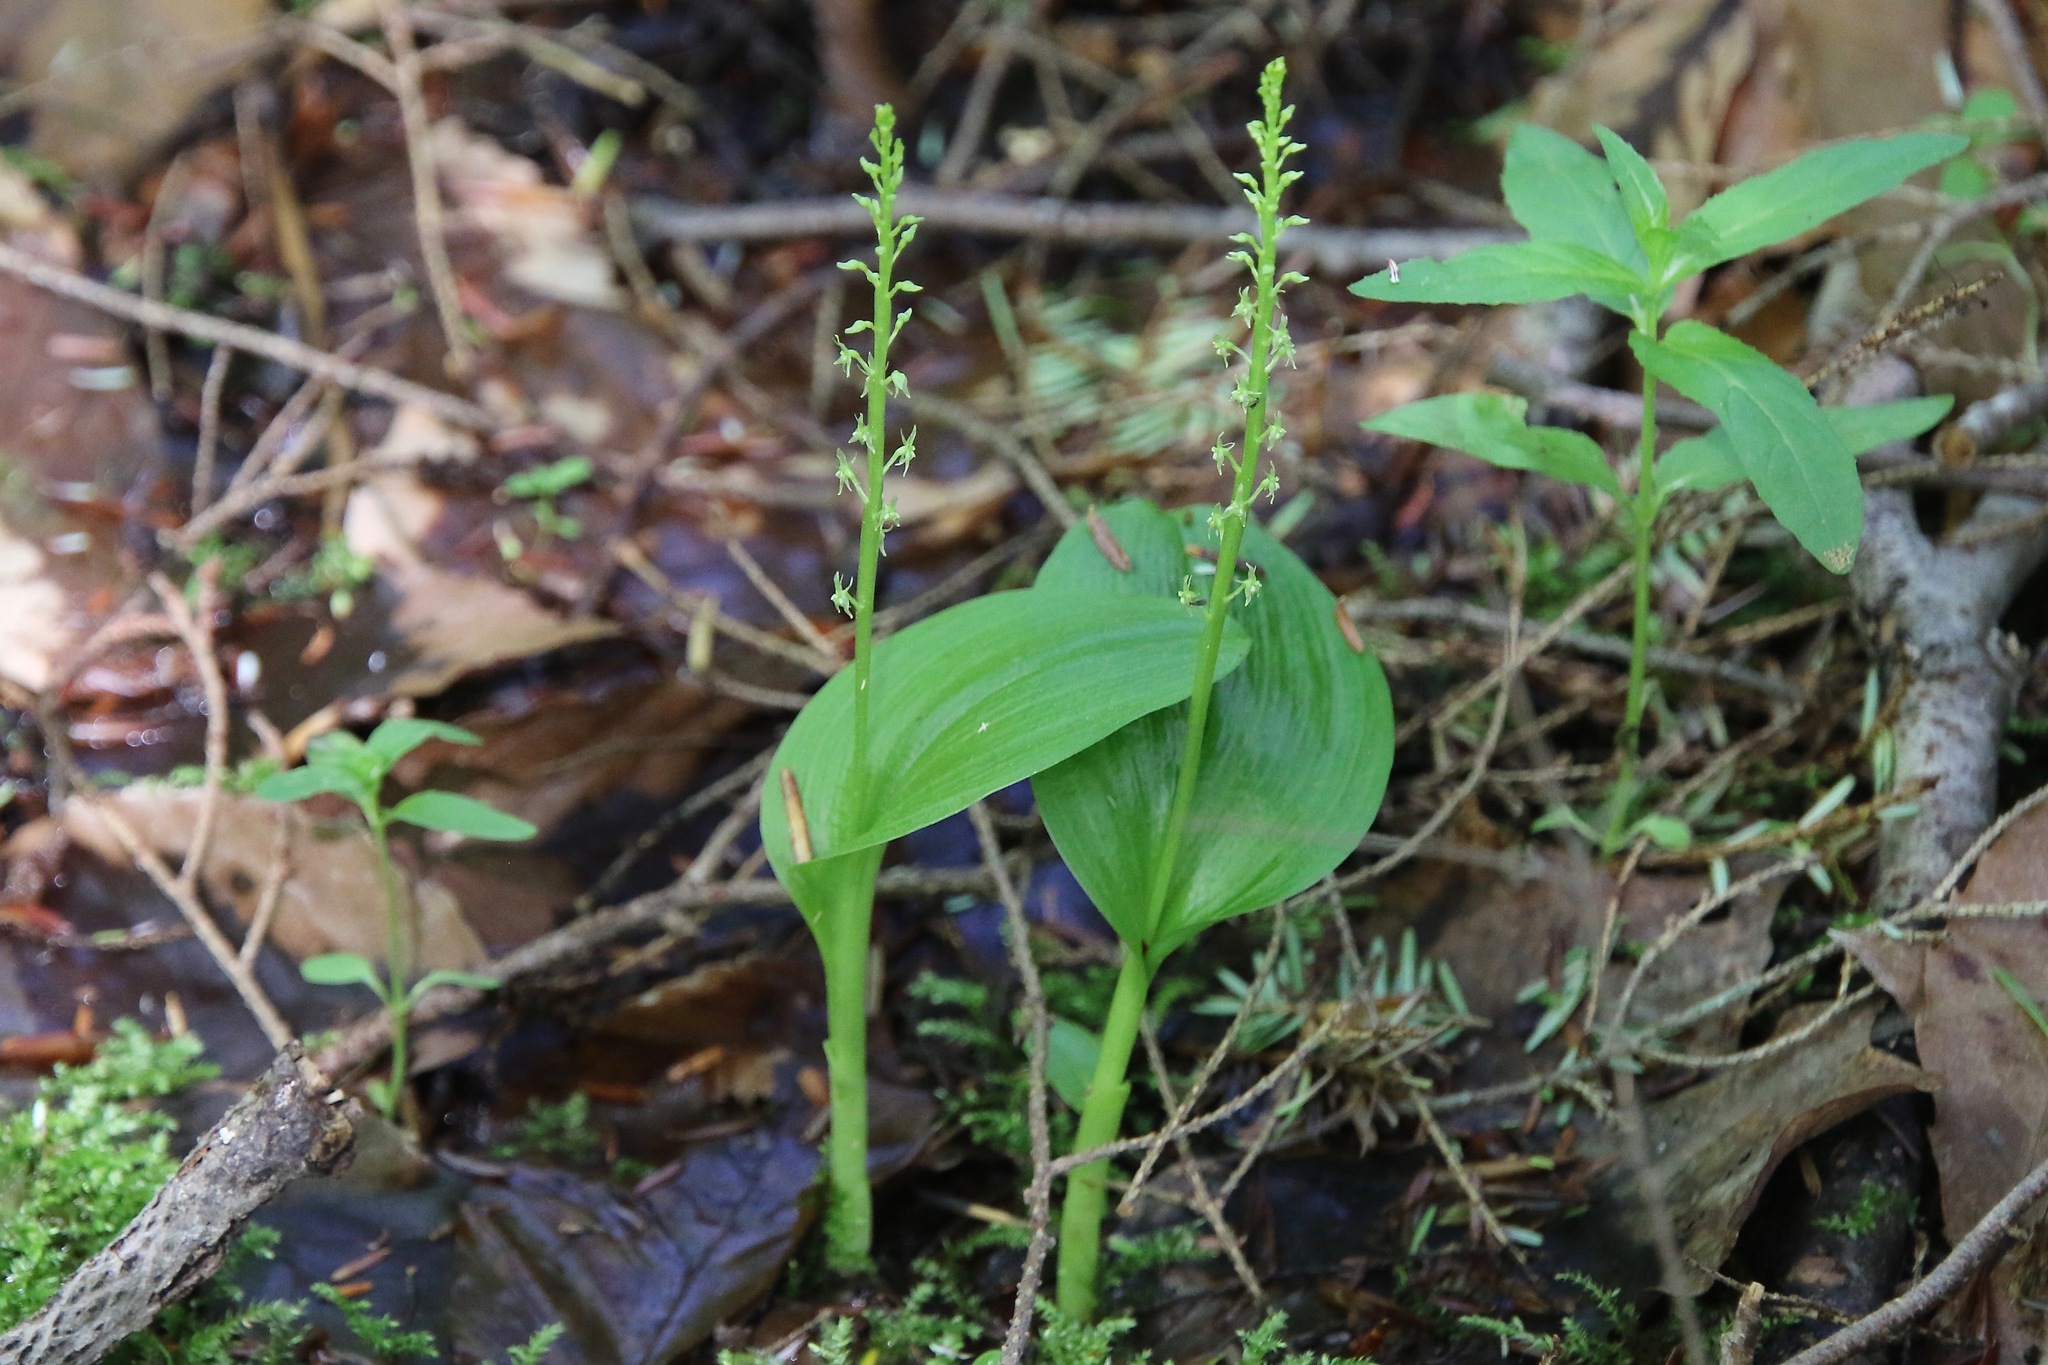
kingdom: Plantae
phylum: Tracheophyta
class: Liliopsida
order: Asparagales
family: Orchidaceae
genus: Malaxis
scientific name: Malaxis monophyllos
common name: White adder's-mouth
